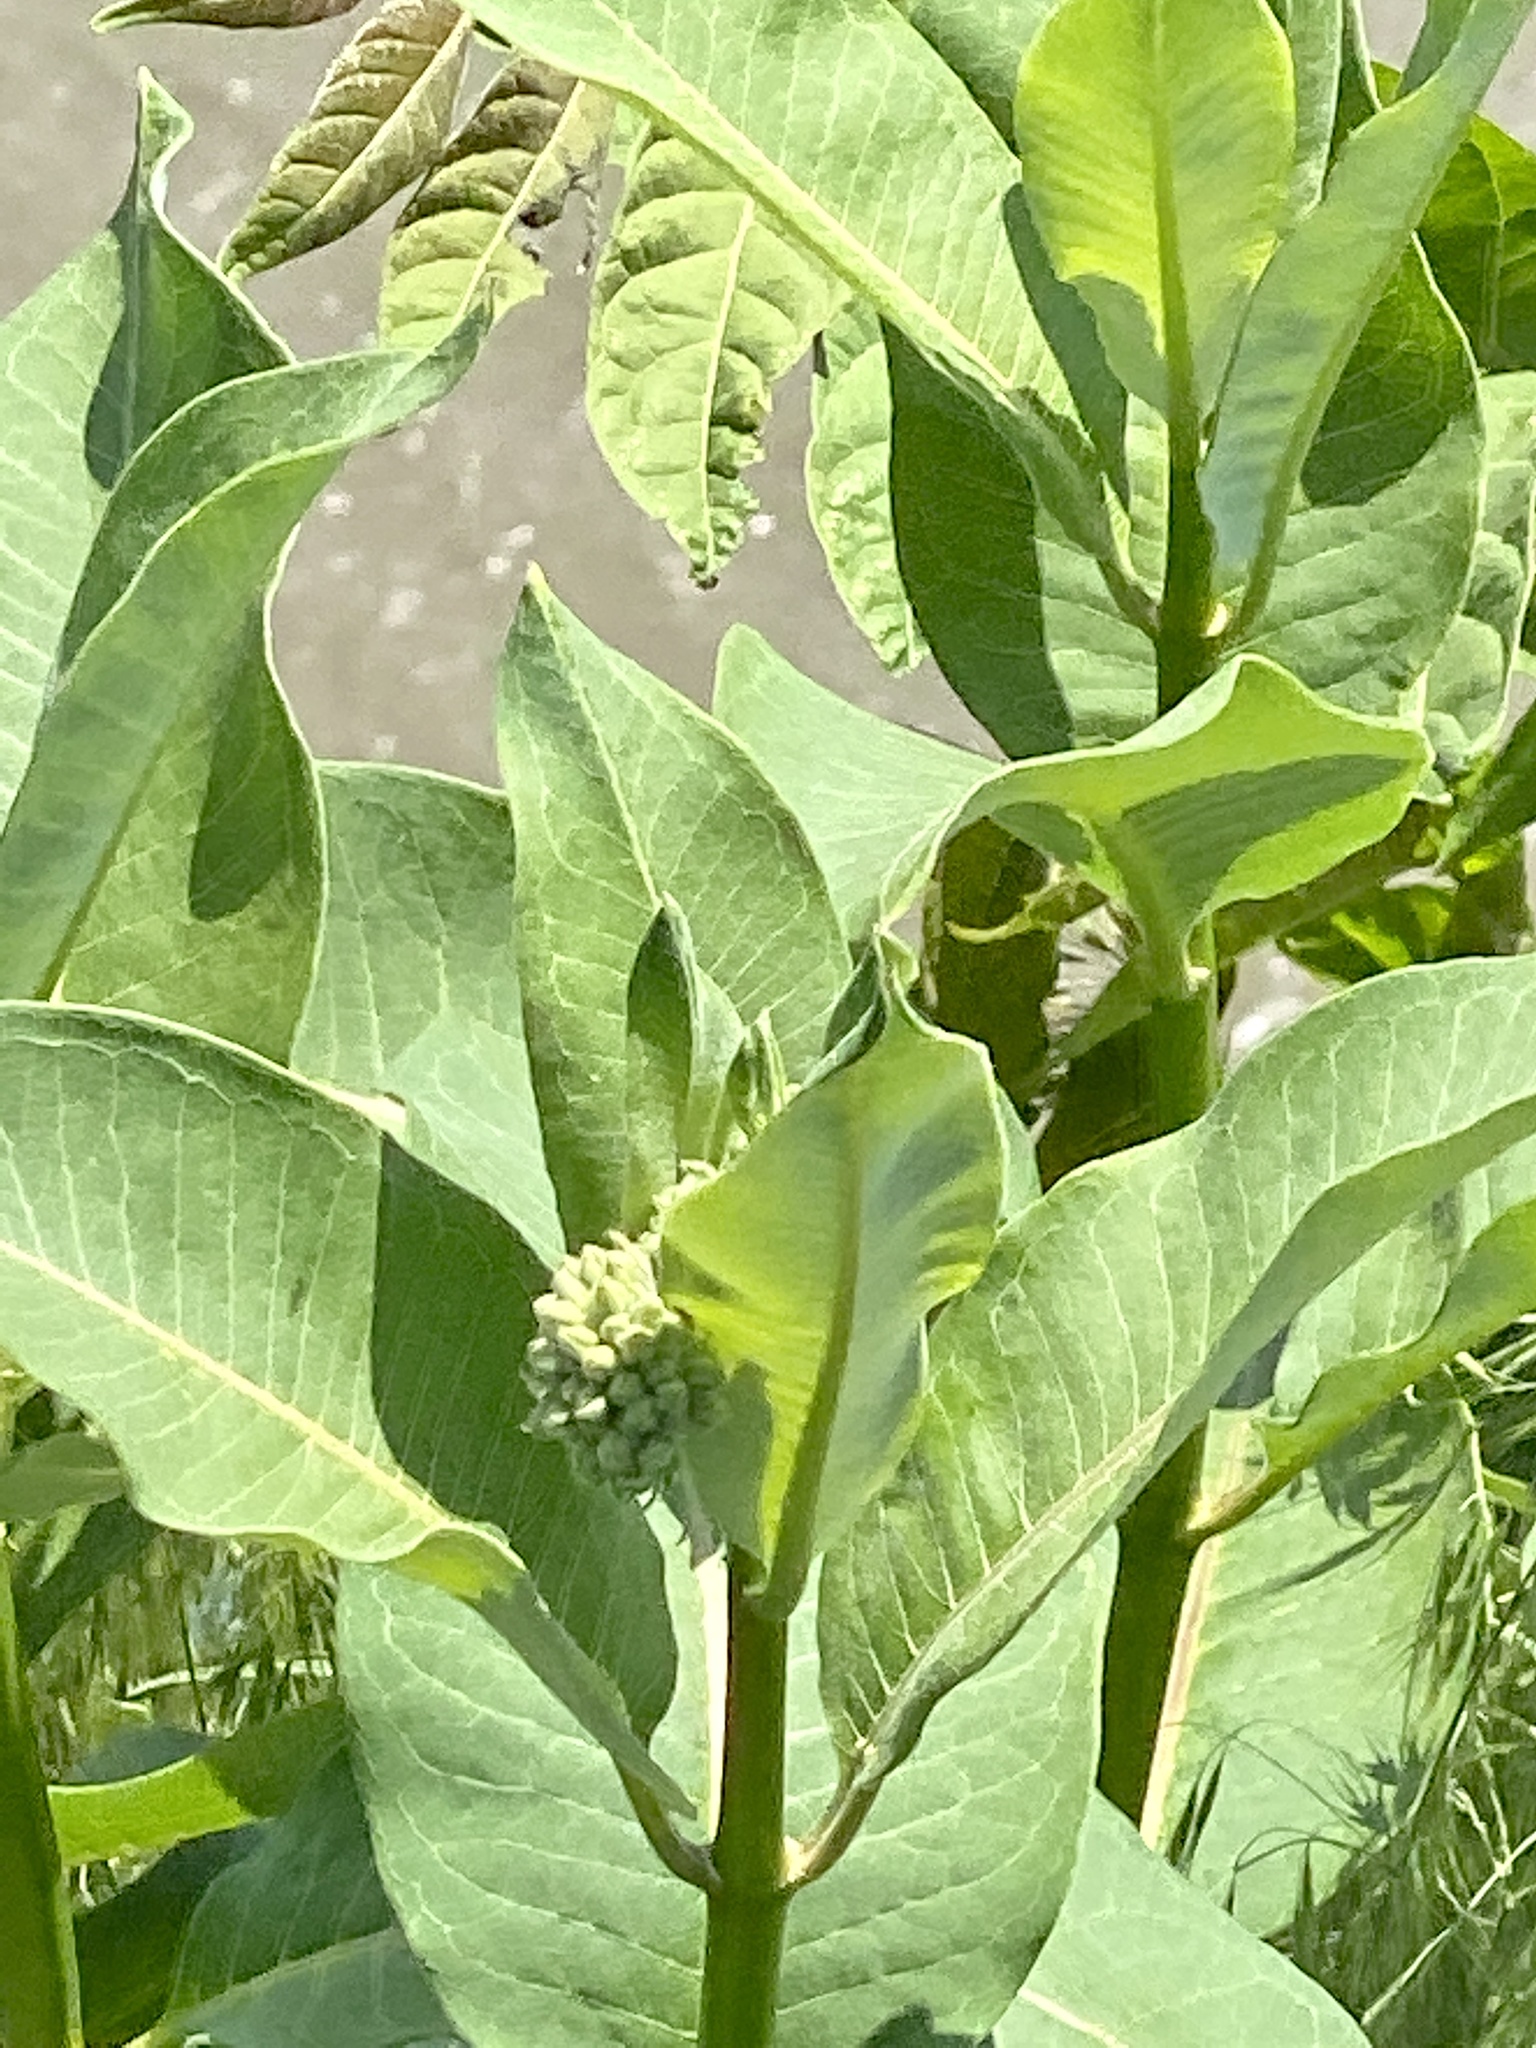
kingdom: Plantae
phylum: Tracheophyta
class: Magnoliopsida
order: Gentianales
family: Apocynaceae
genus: Asclepias
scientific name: Asclepias syriaca
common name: Common milkweed
